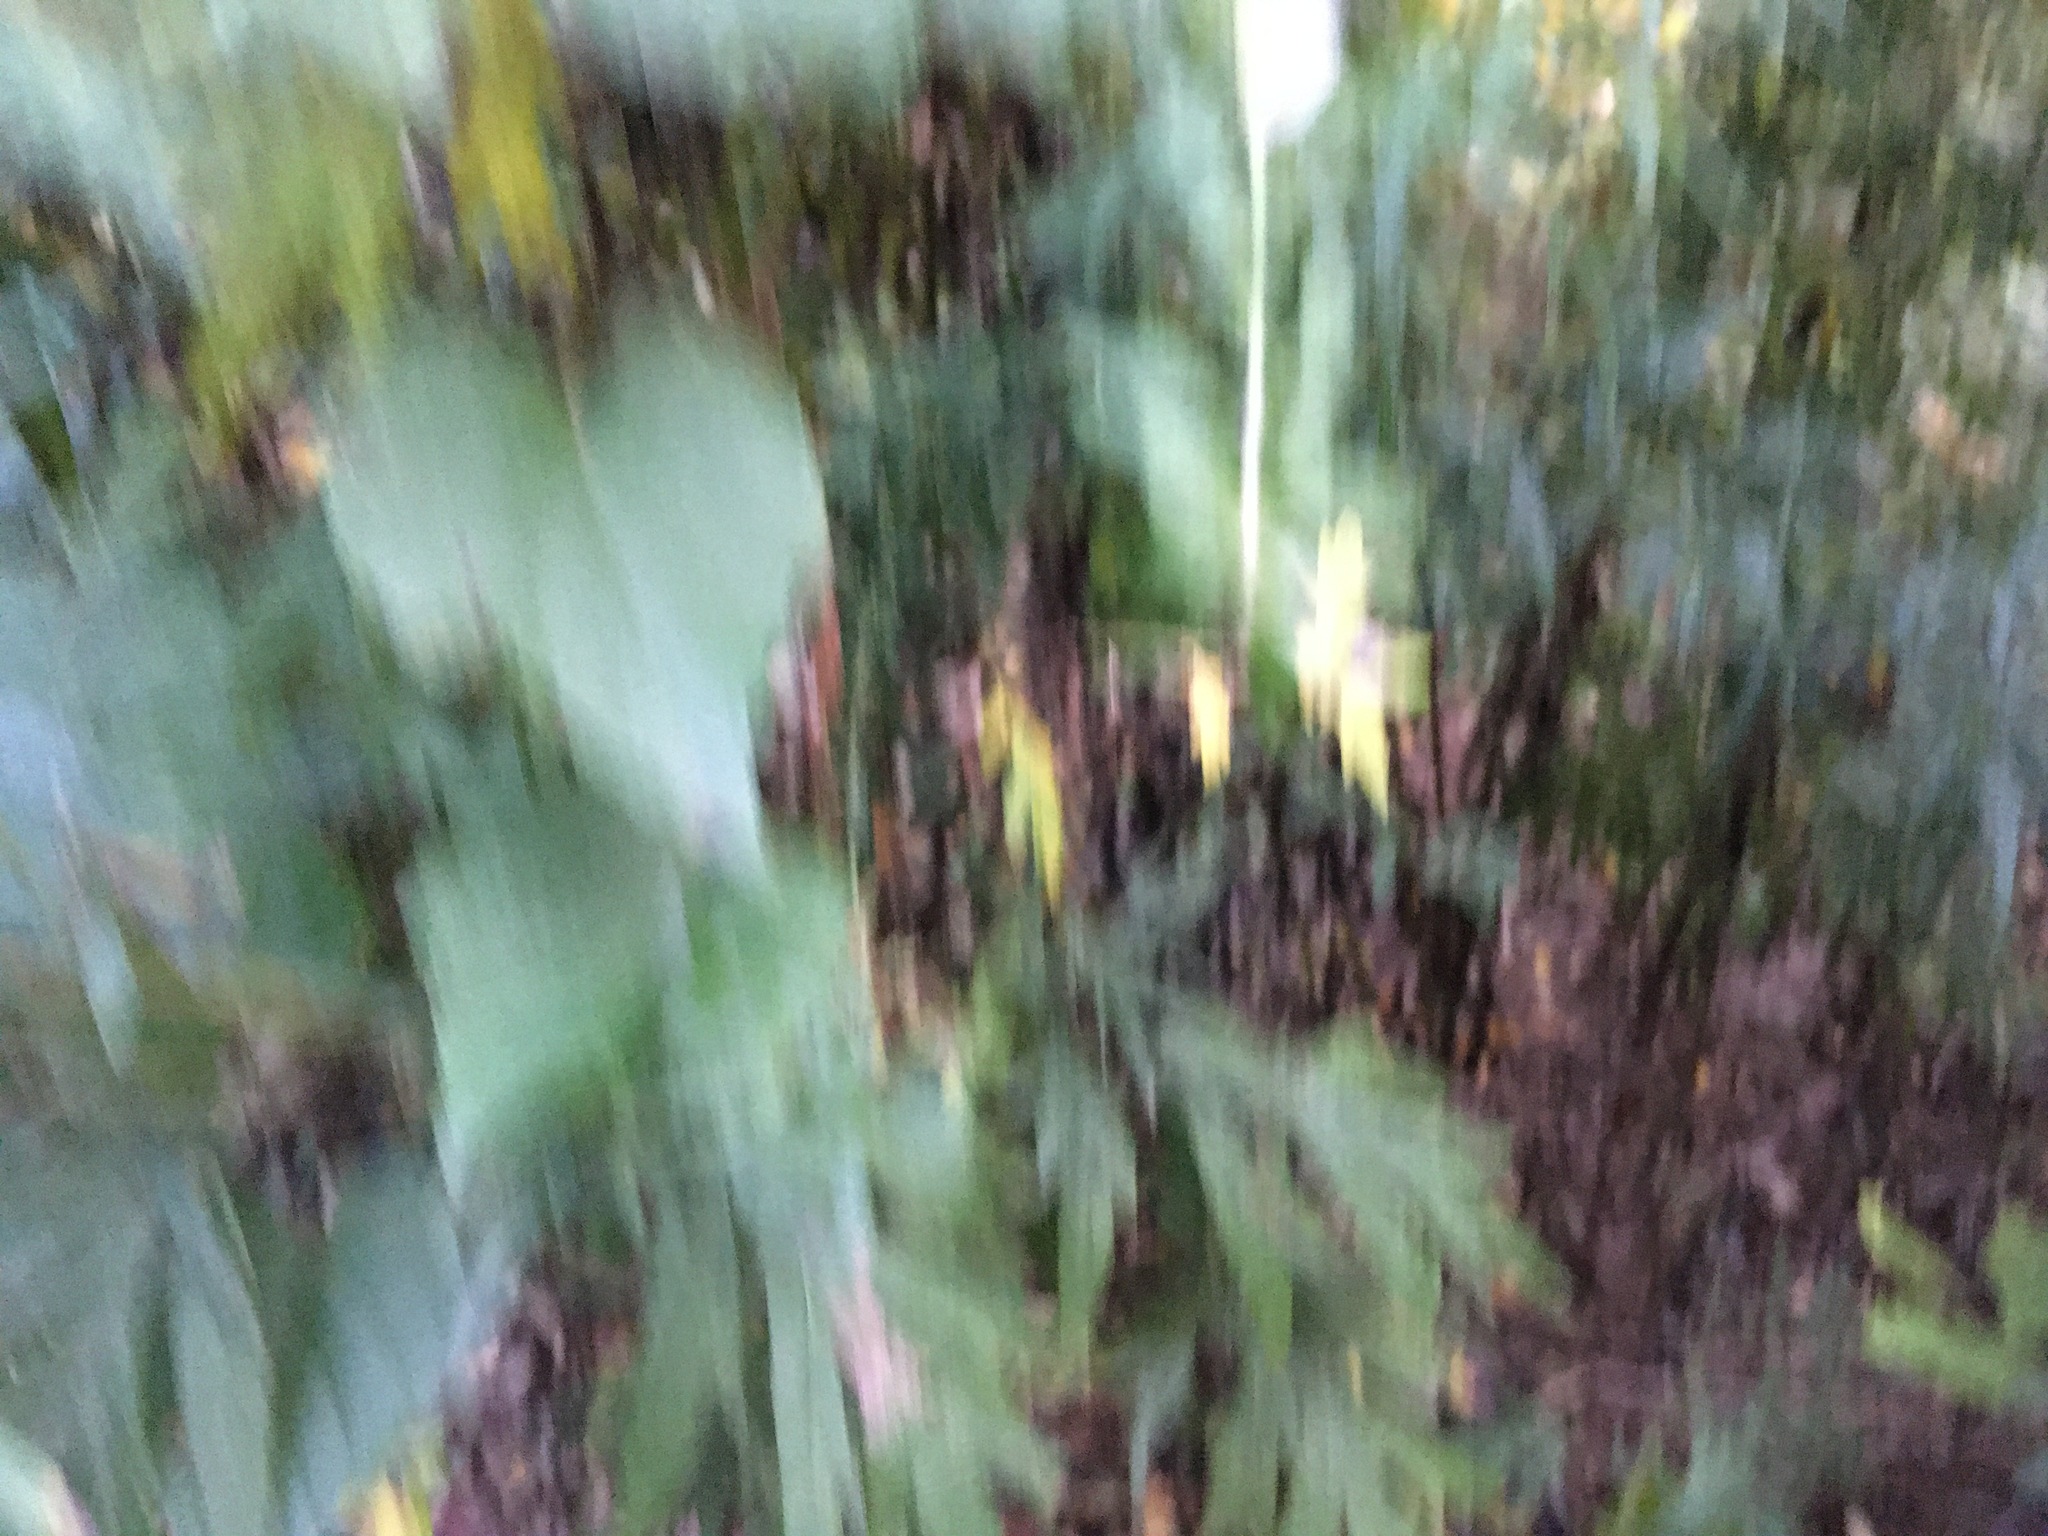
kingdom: Plantae
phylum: Tracheophyta
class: Magnoliopsida
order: Asterales
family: Asteraceae
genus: Artemisia
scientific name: Artemisia vulgaris
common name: Mugwort
